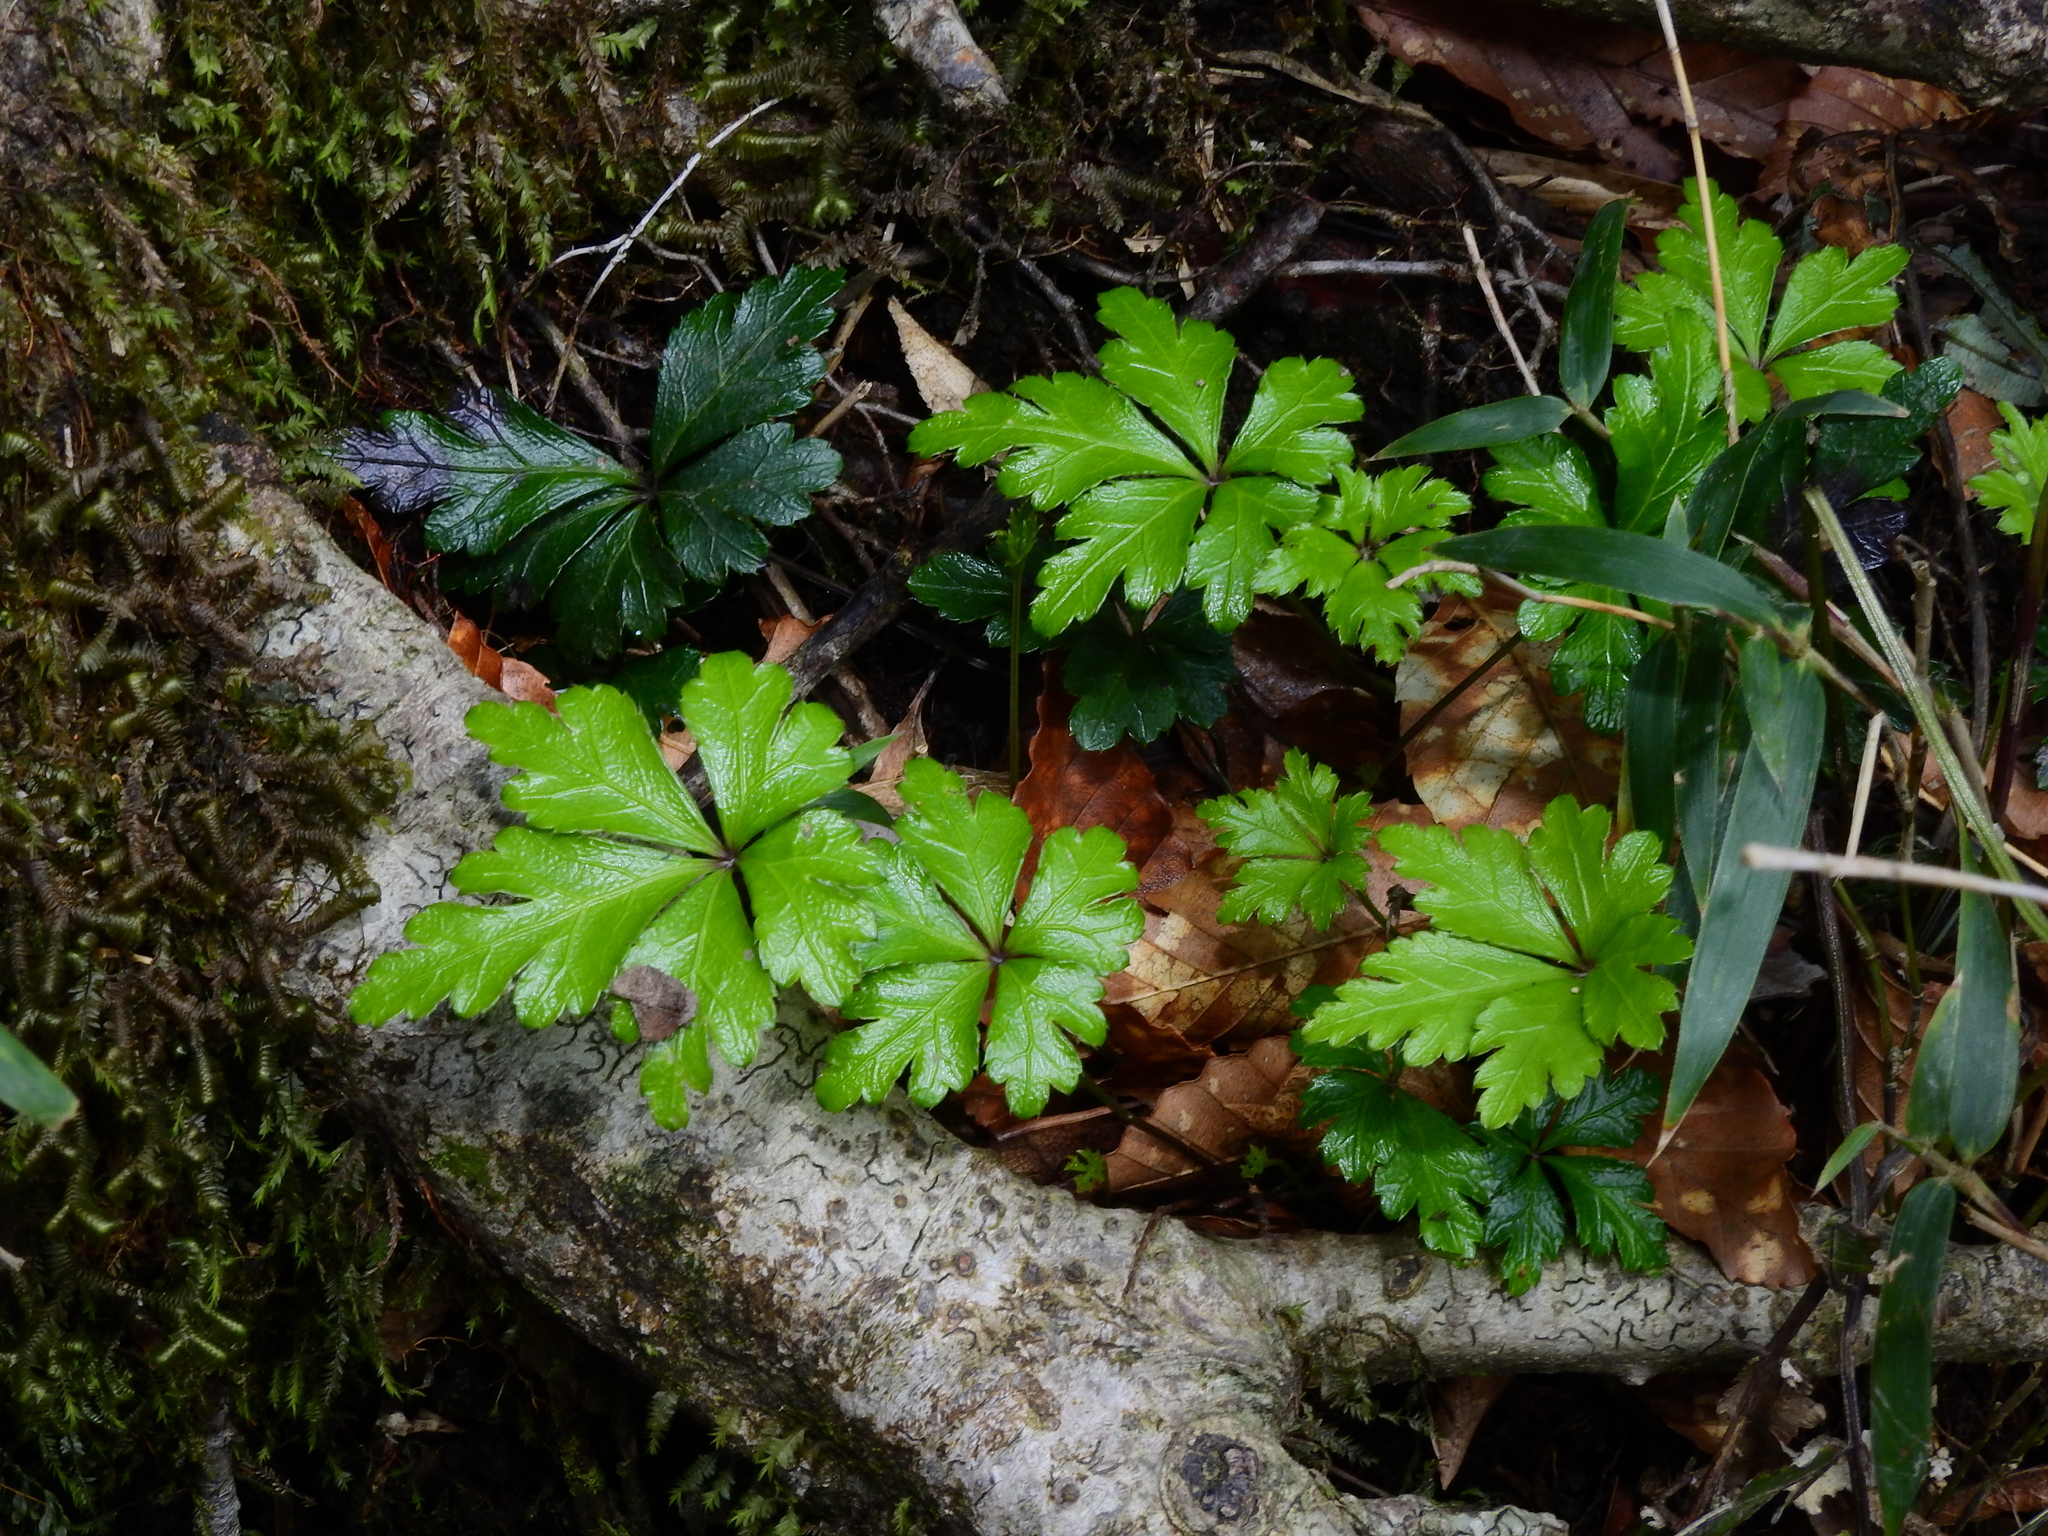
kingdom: Plantae
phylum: Tracheophyta
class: Magnoliopsida
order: Ranunculales
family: Ranunculaceae
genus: Coptis
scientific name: Coptis quinquefolia
